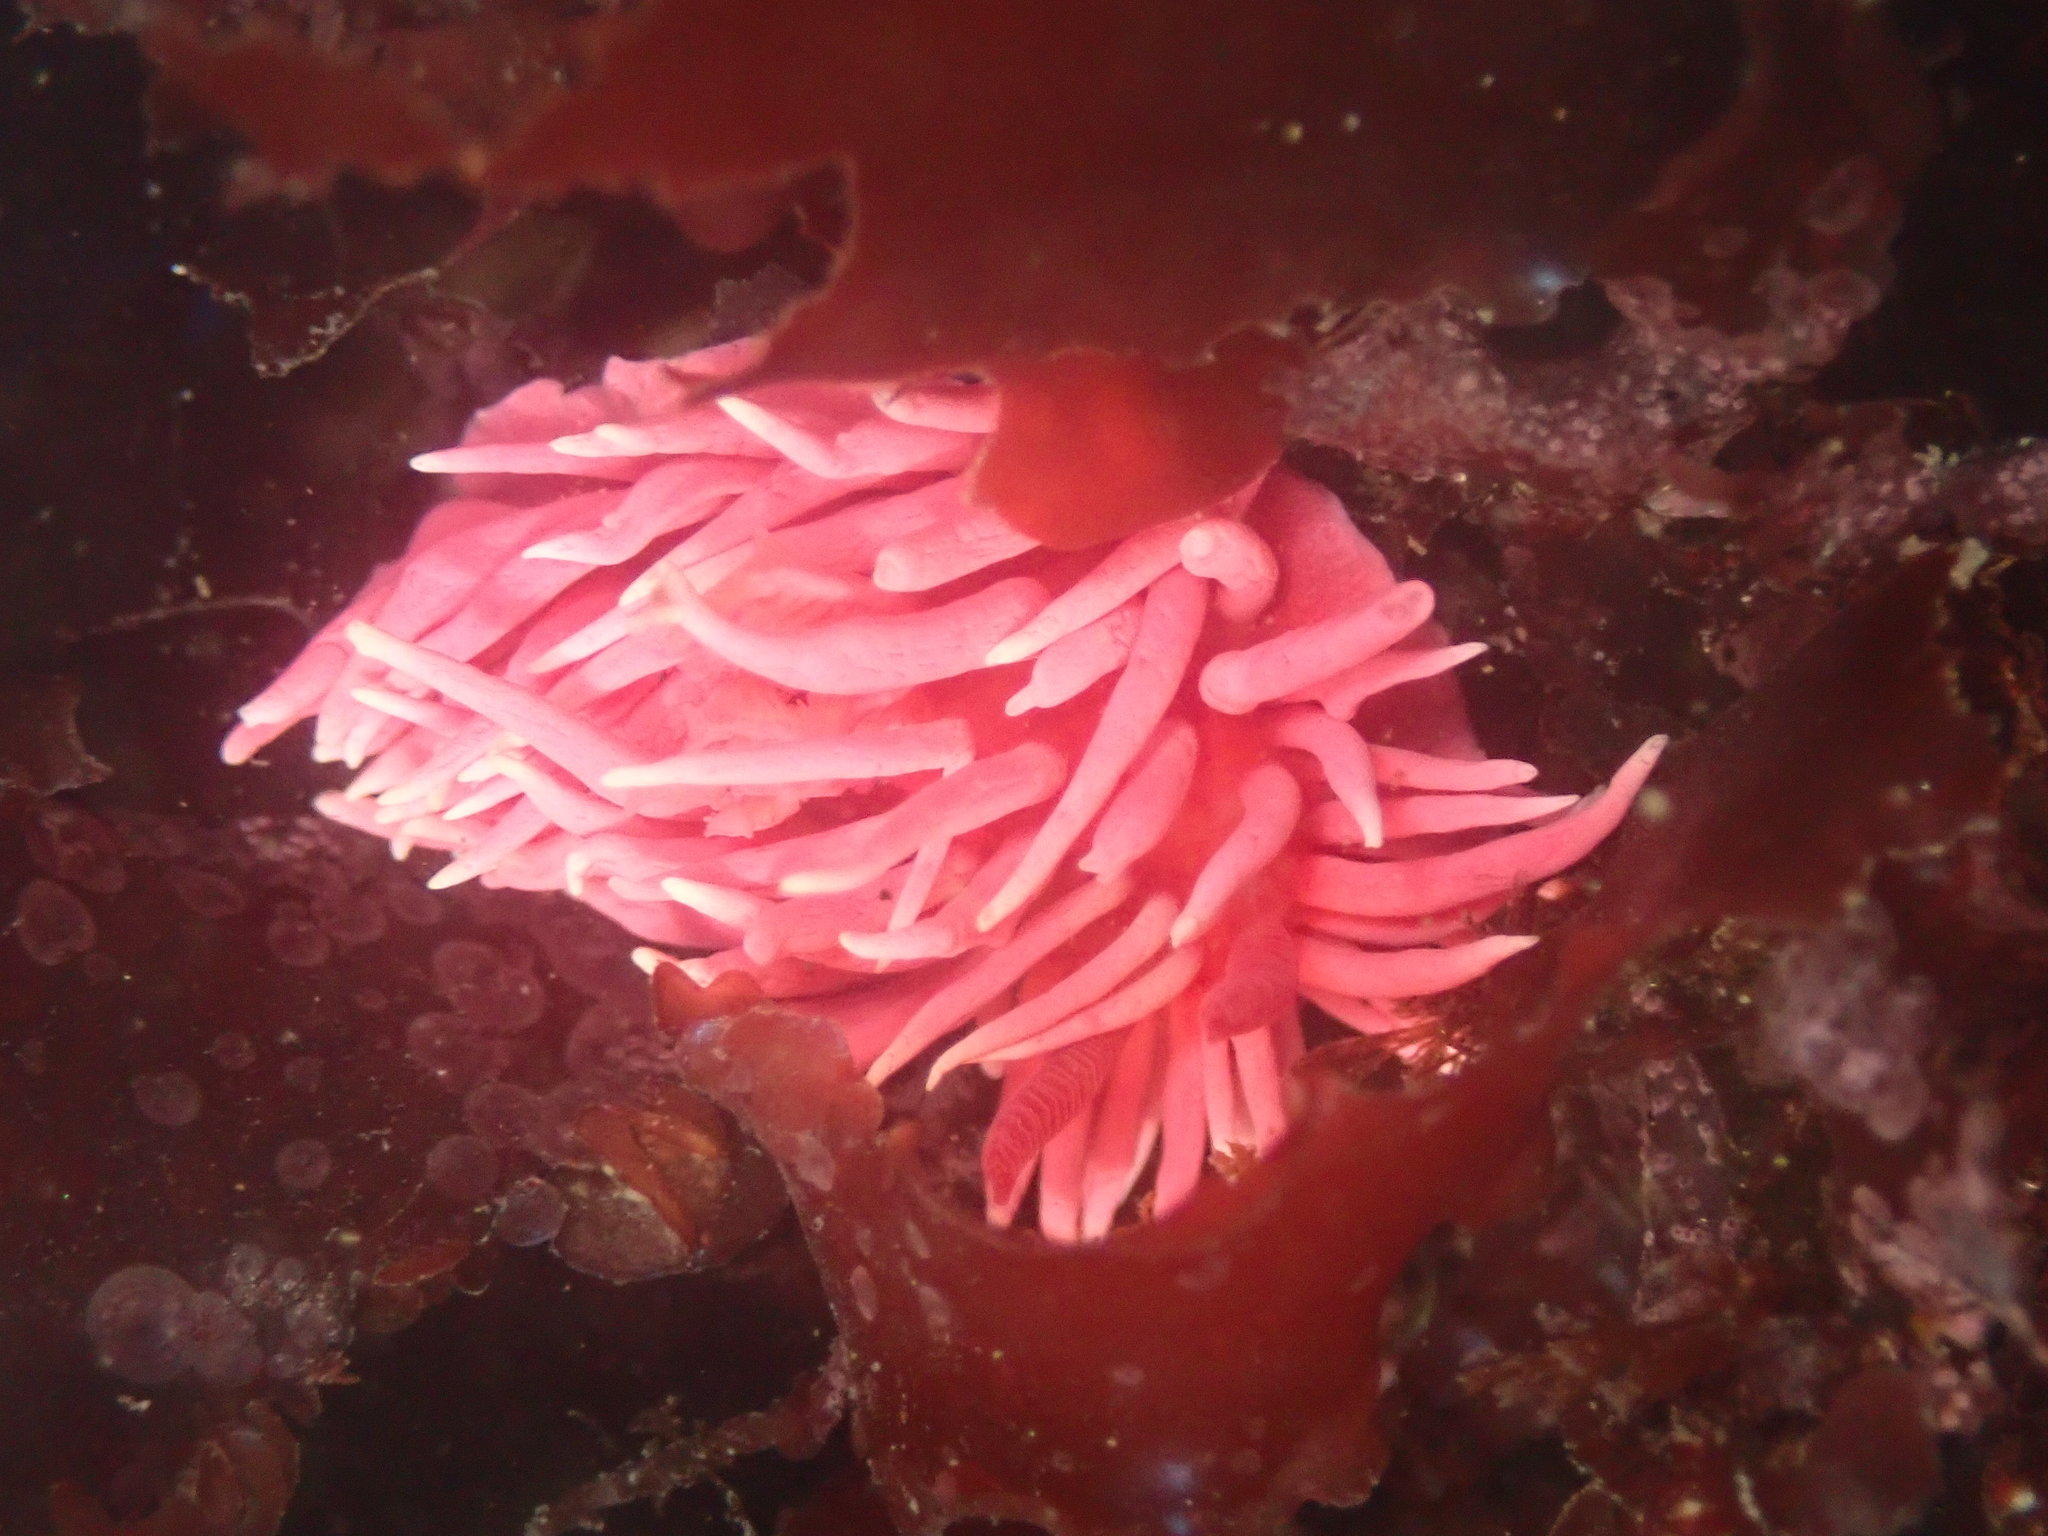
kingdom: Animalia
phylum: Mollusca
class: Gastropoda
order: Nudibranchia
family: Goniodorididae
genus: Okenia
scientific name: Okenia
